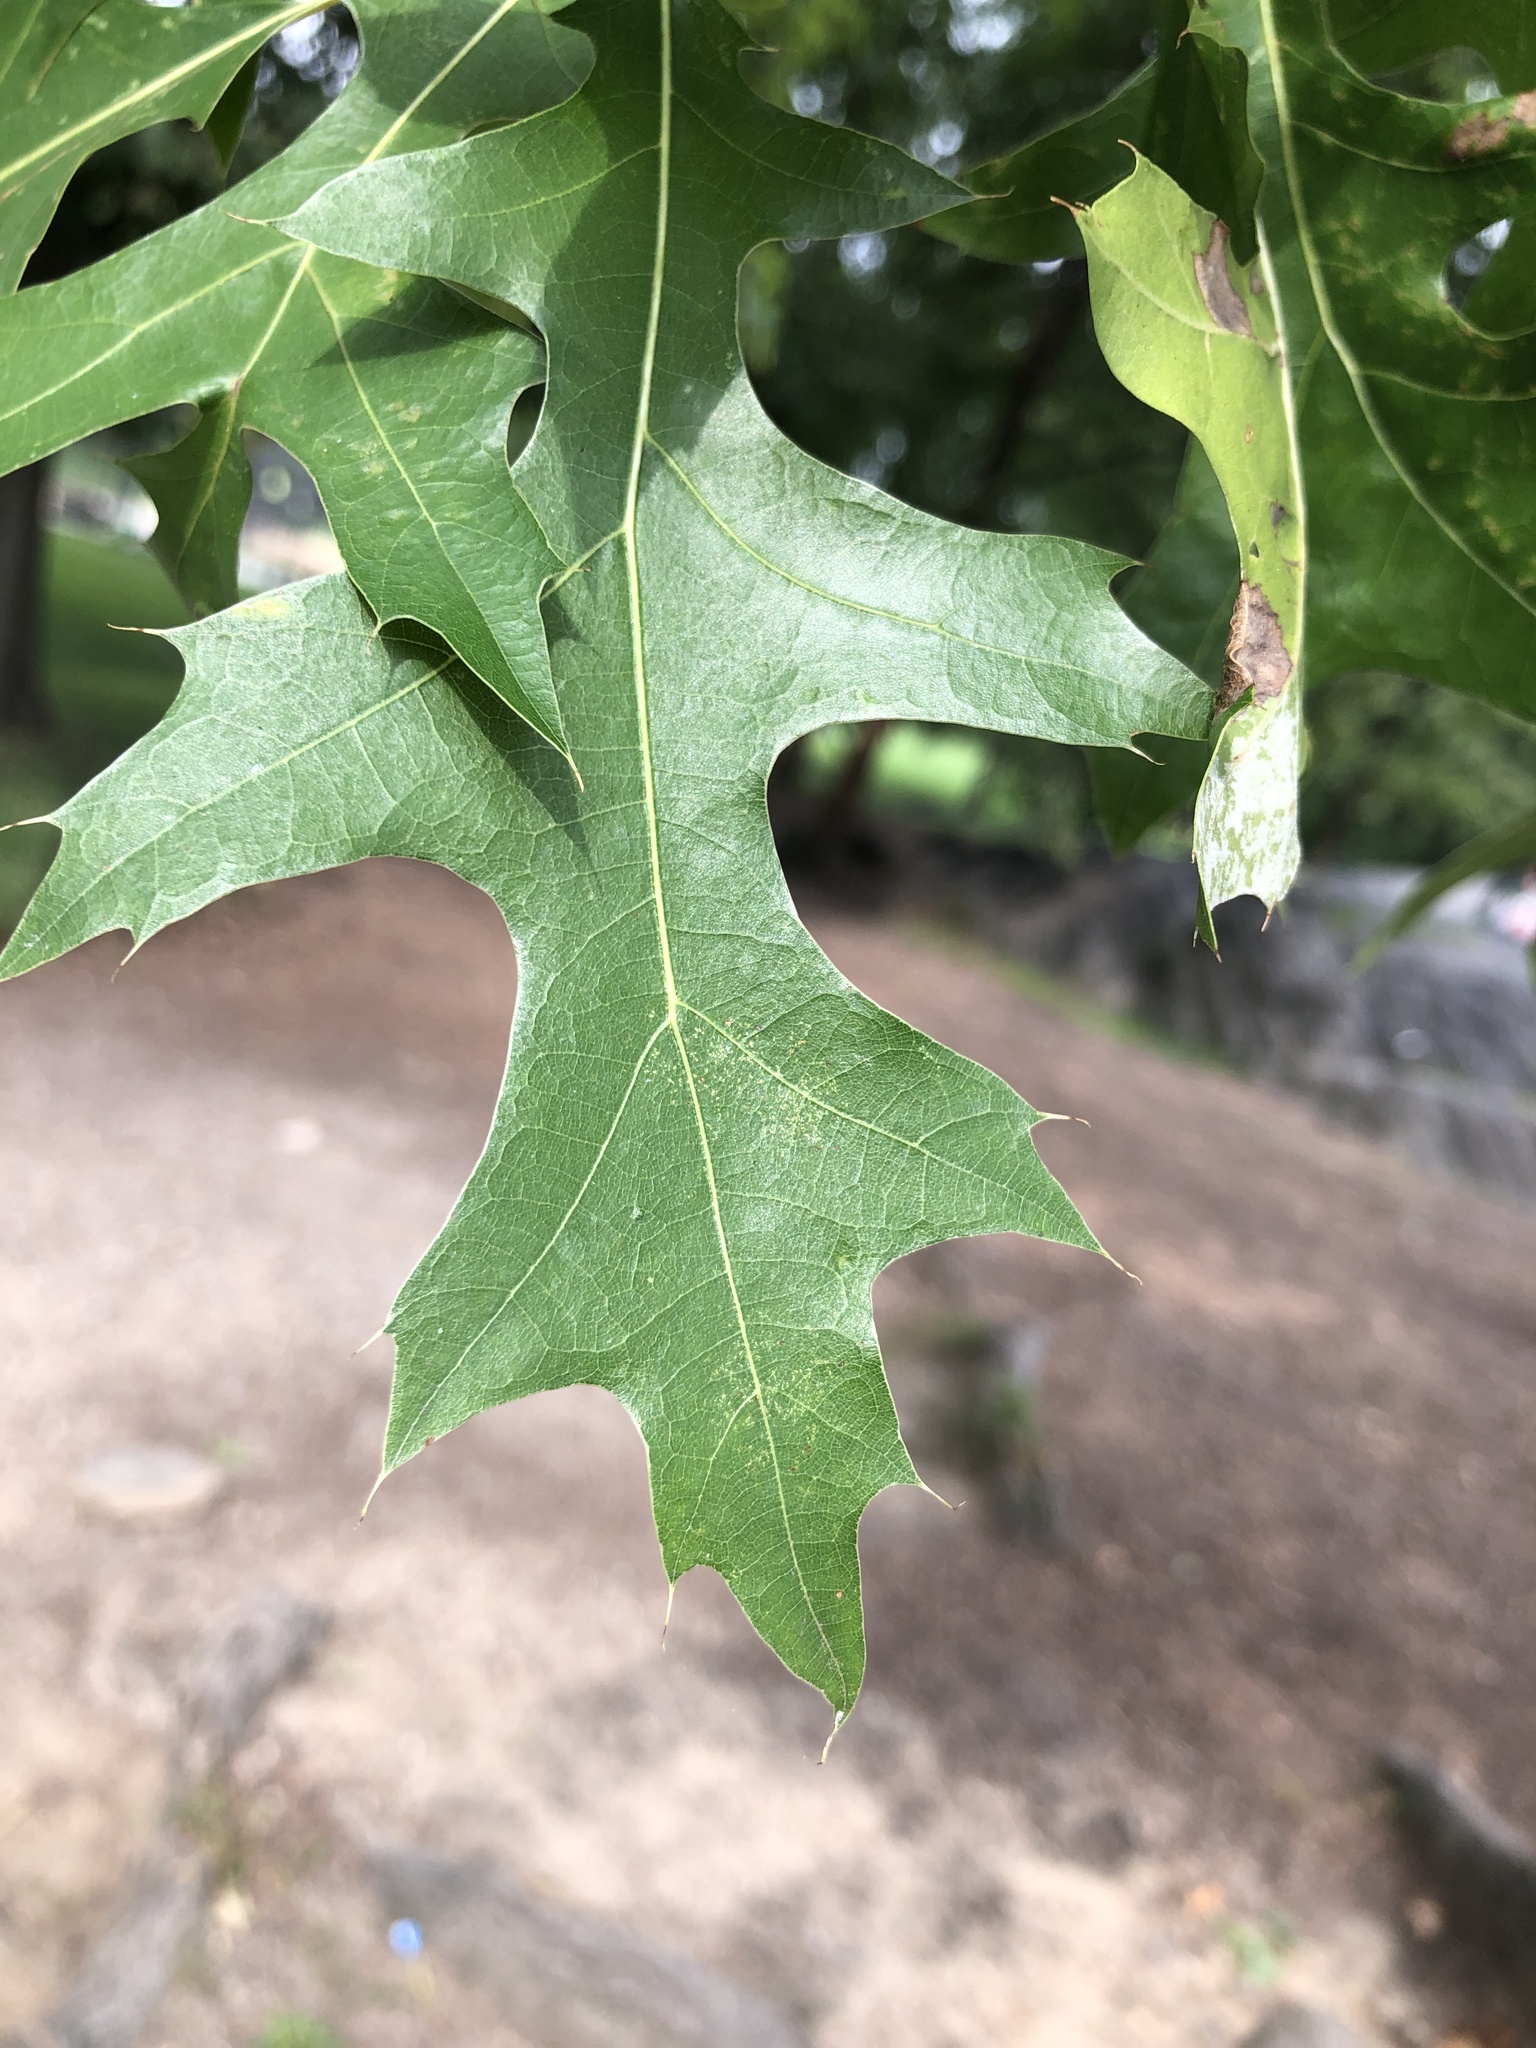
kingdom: Plantae
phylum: Tracheophyta
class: Magnoliopsida
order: Fagales
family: Fagaceae
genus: Quercus
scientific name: Quercus coccinea
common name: Scarlet oak
